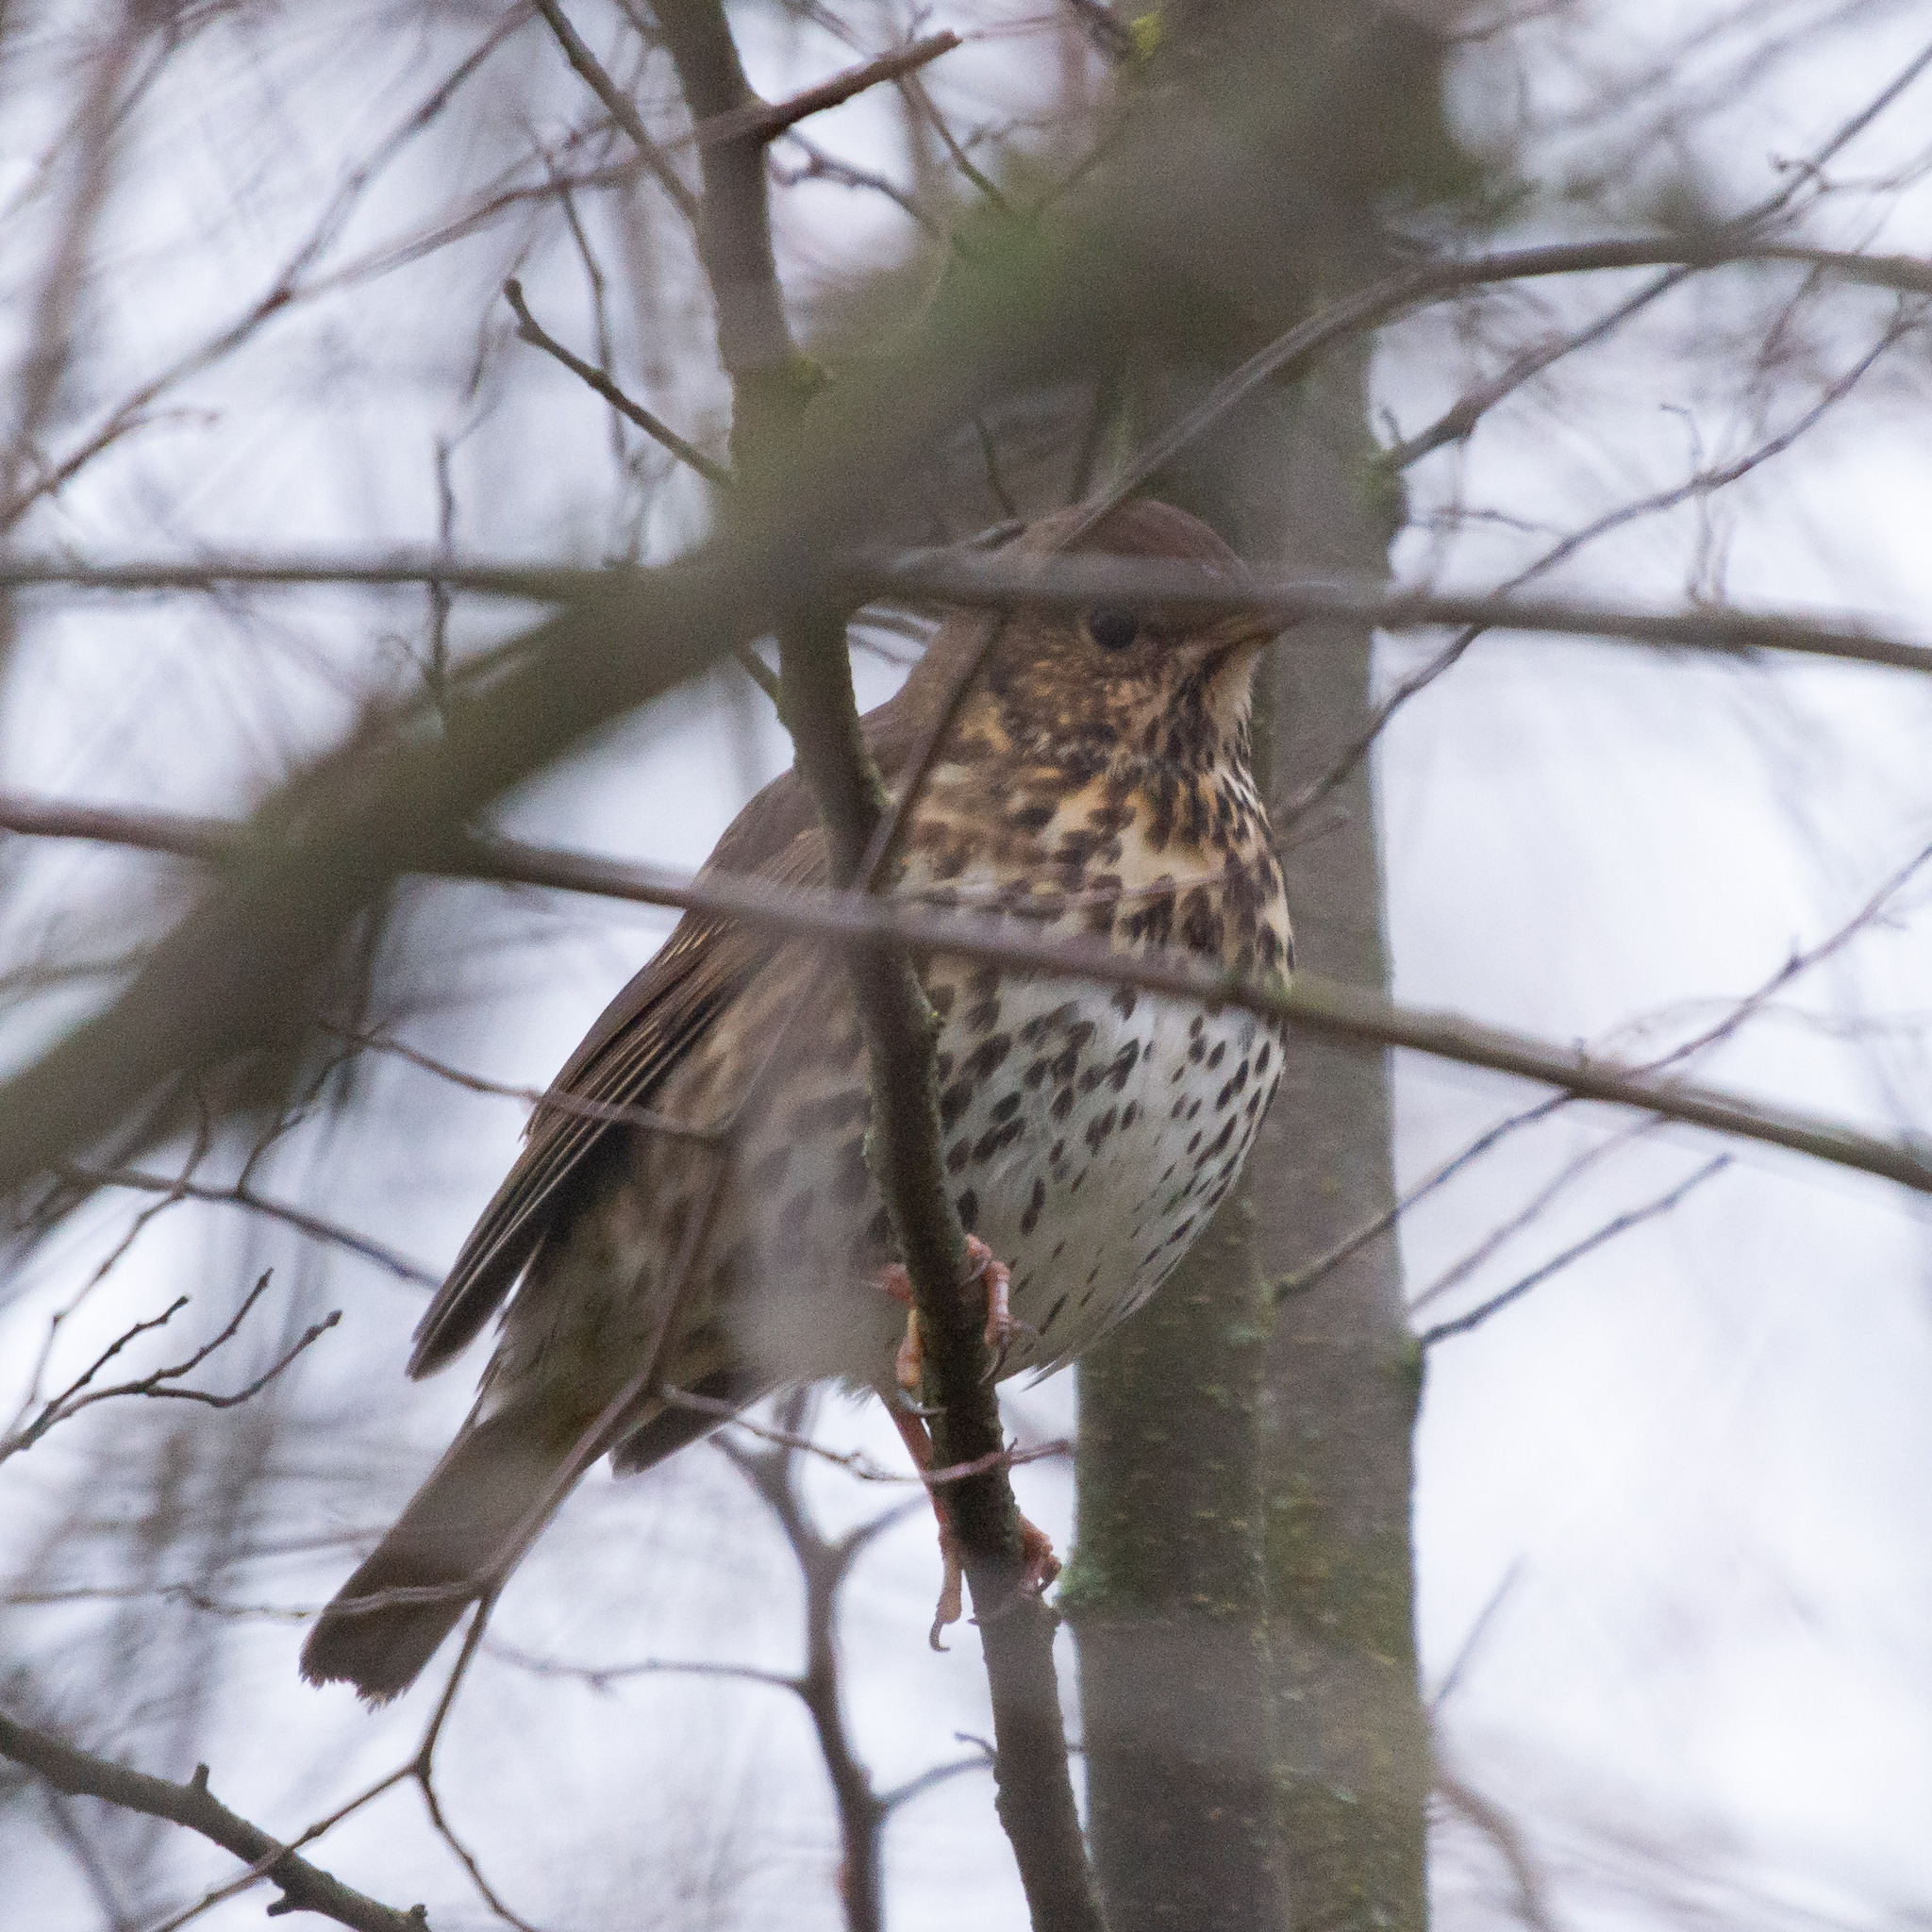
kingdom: Animalia
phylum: Chordata
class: Aves
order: Passeriformes
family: Turdidae
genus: Turdus
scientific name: Turdus philomelos
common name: Song thrush
